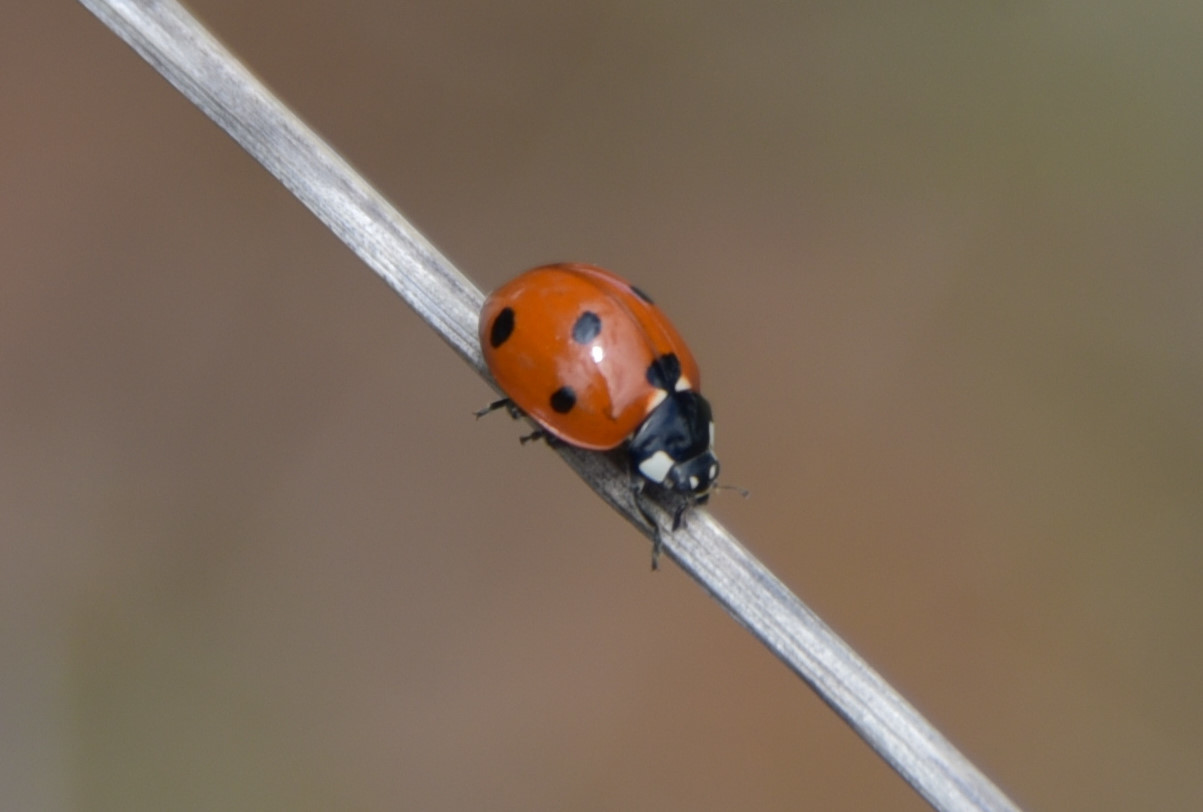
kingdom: Animalia
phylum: Arthropoda
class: Insecta
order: Coleoptera
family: Coccinellidae
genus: Coccinella
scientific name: Coccinella septempunctata
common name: Sevenspotted lady beetle
